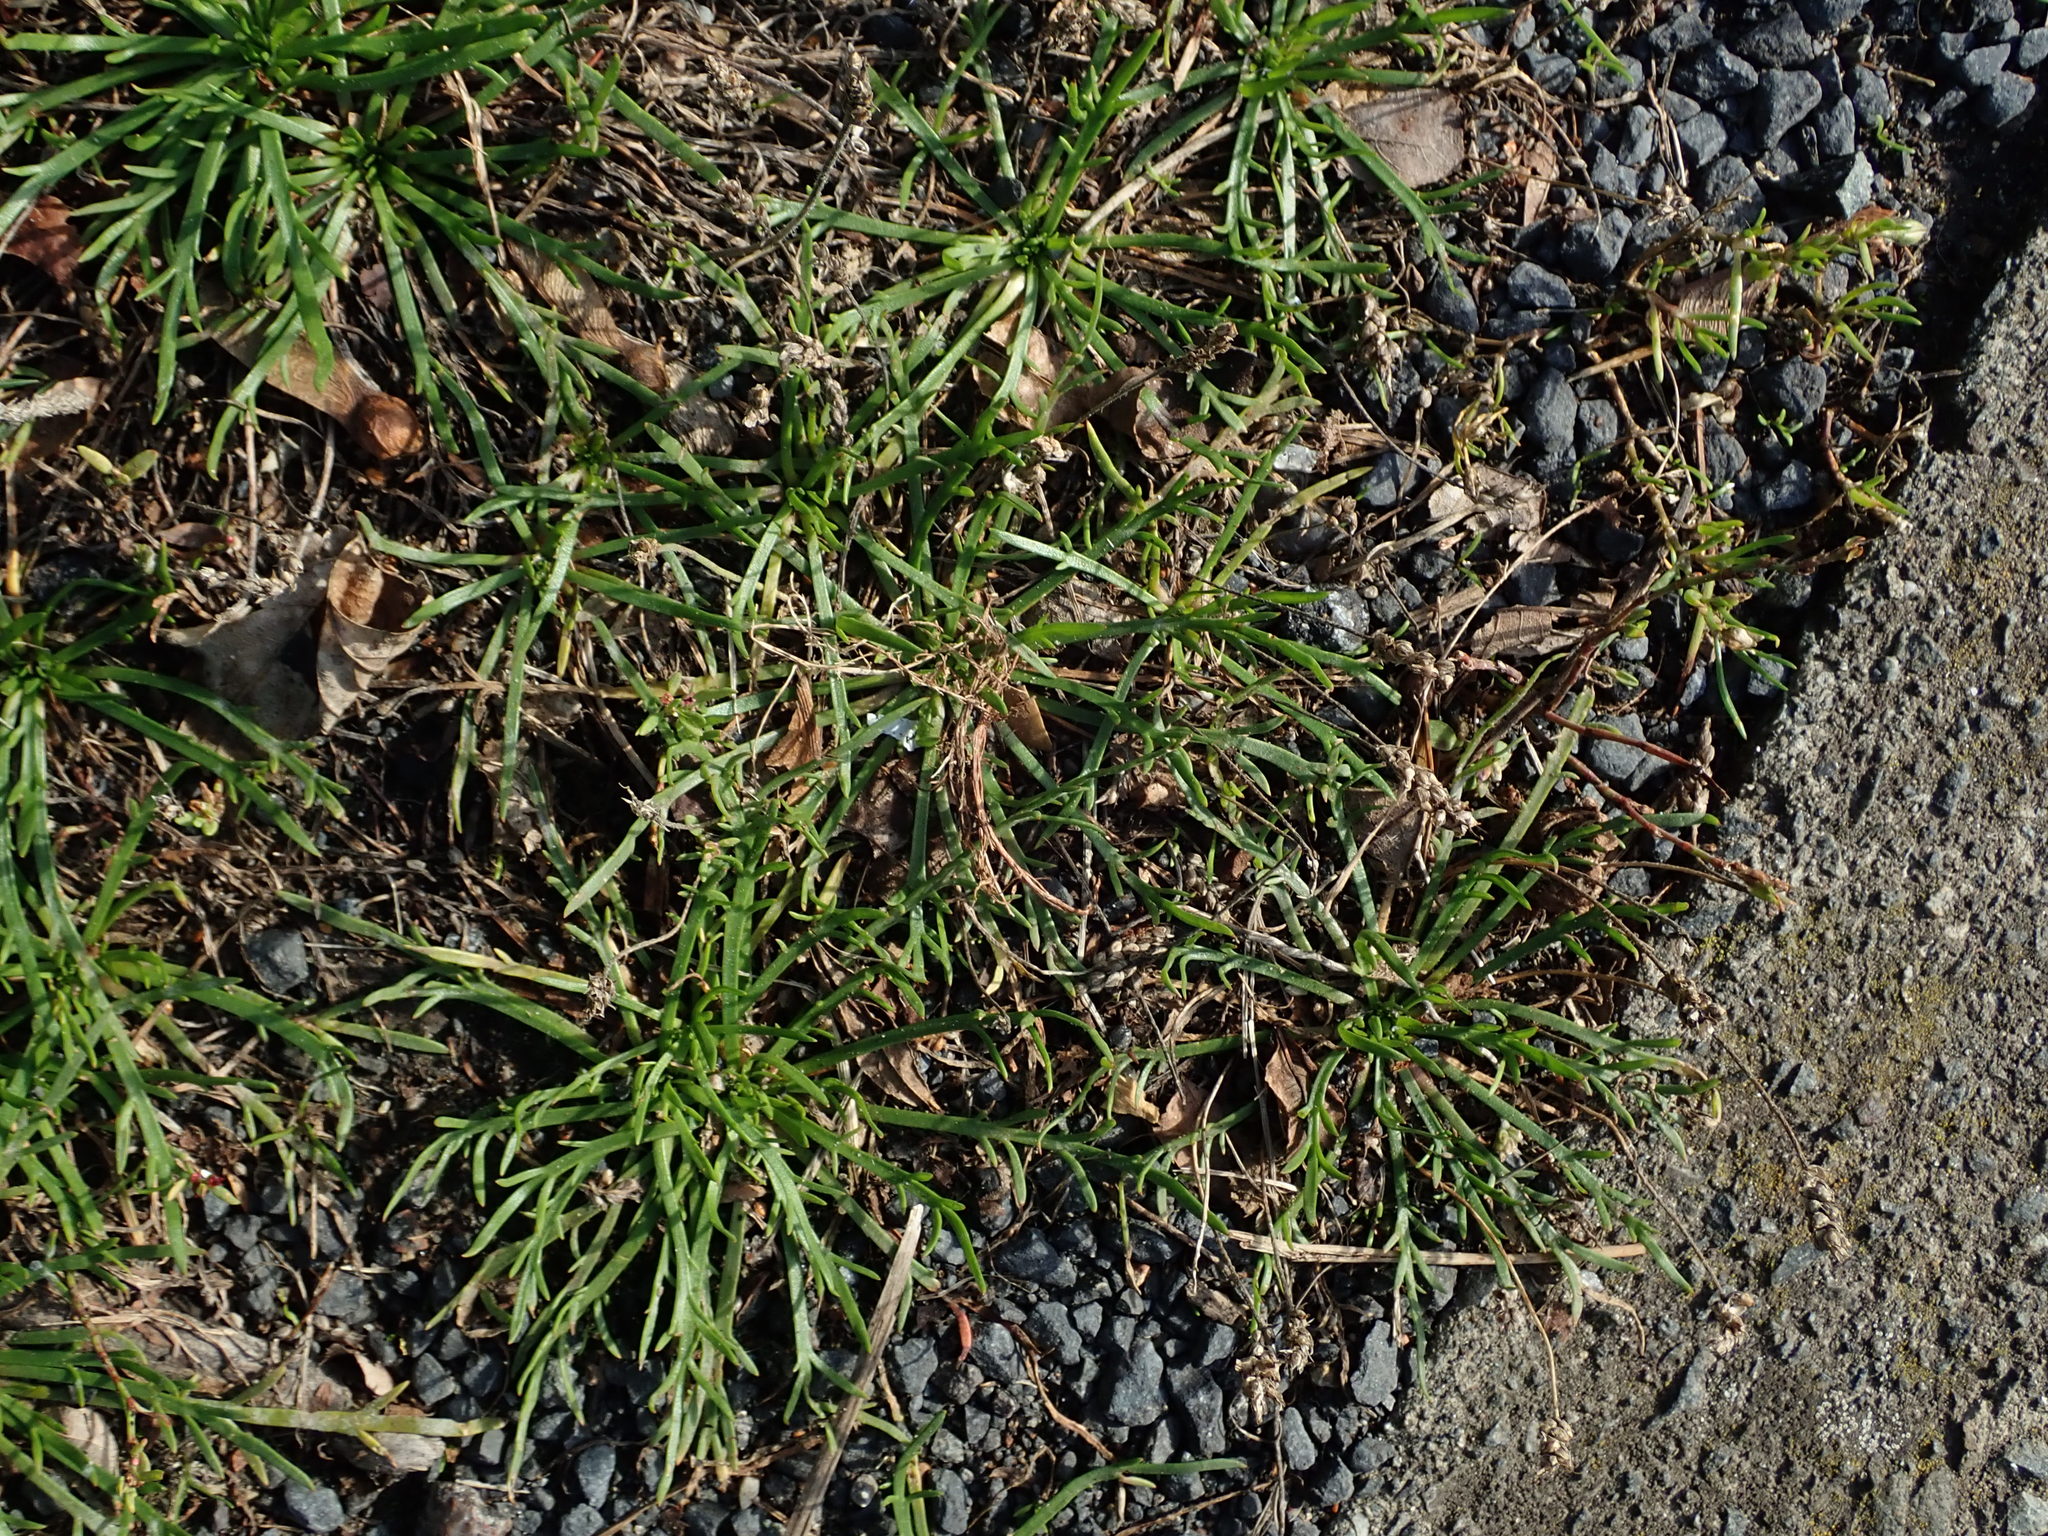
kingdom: Plantae
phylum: Tracheophyta
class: Magnoliopsida
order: Lamiales
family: Plantaginaceae
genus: Plantago
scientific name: Plantago coronopus
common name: Buck's-horn plantain
